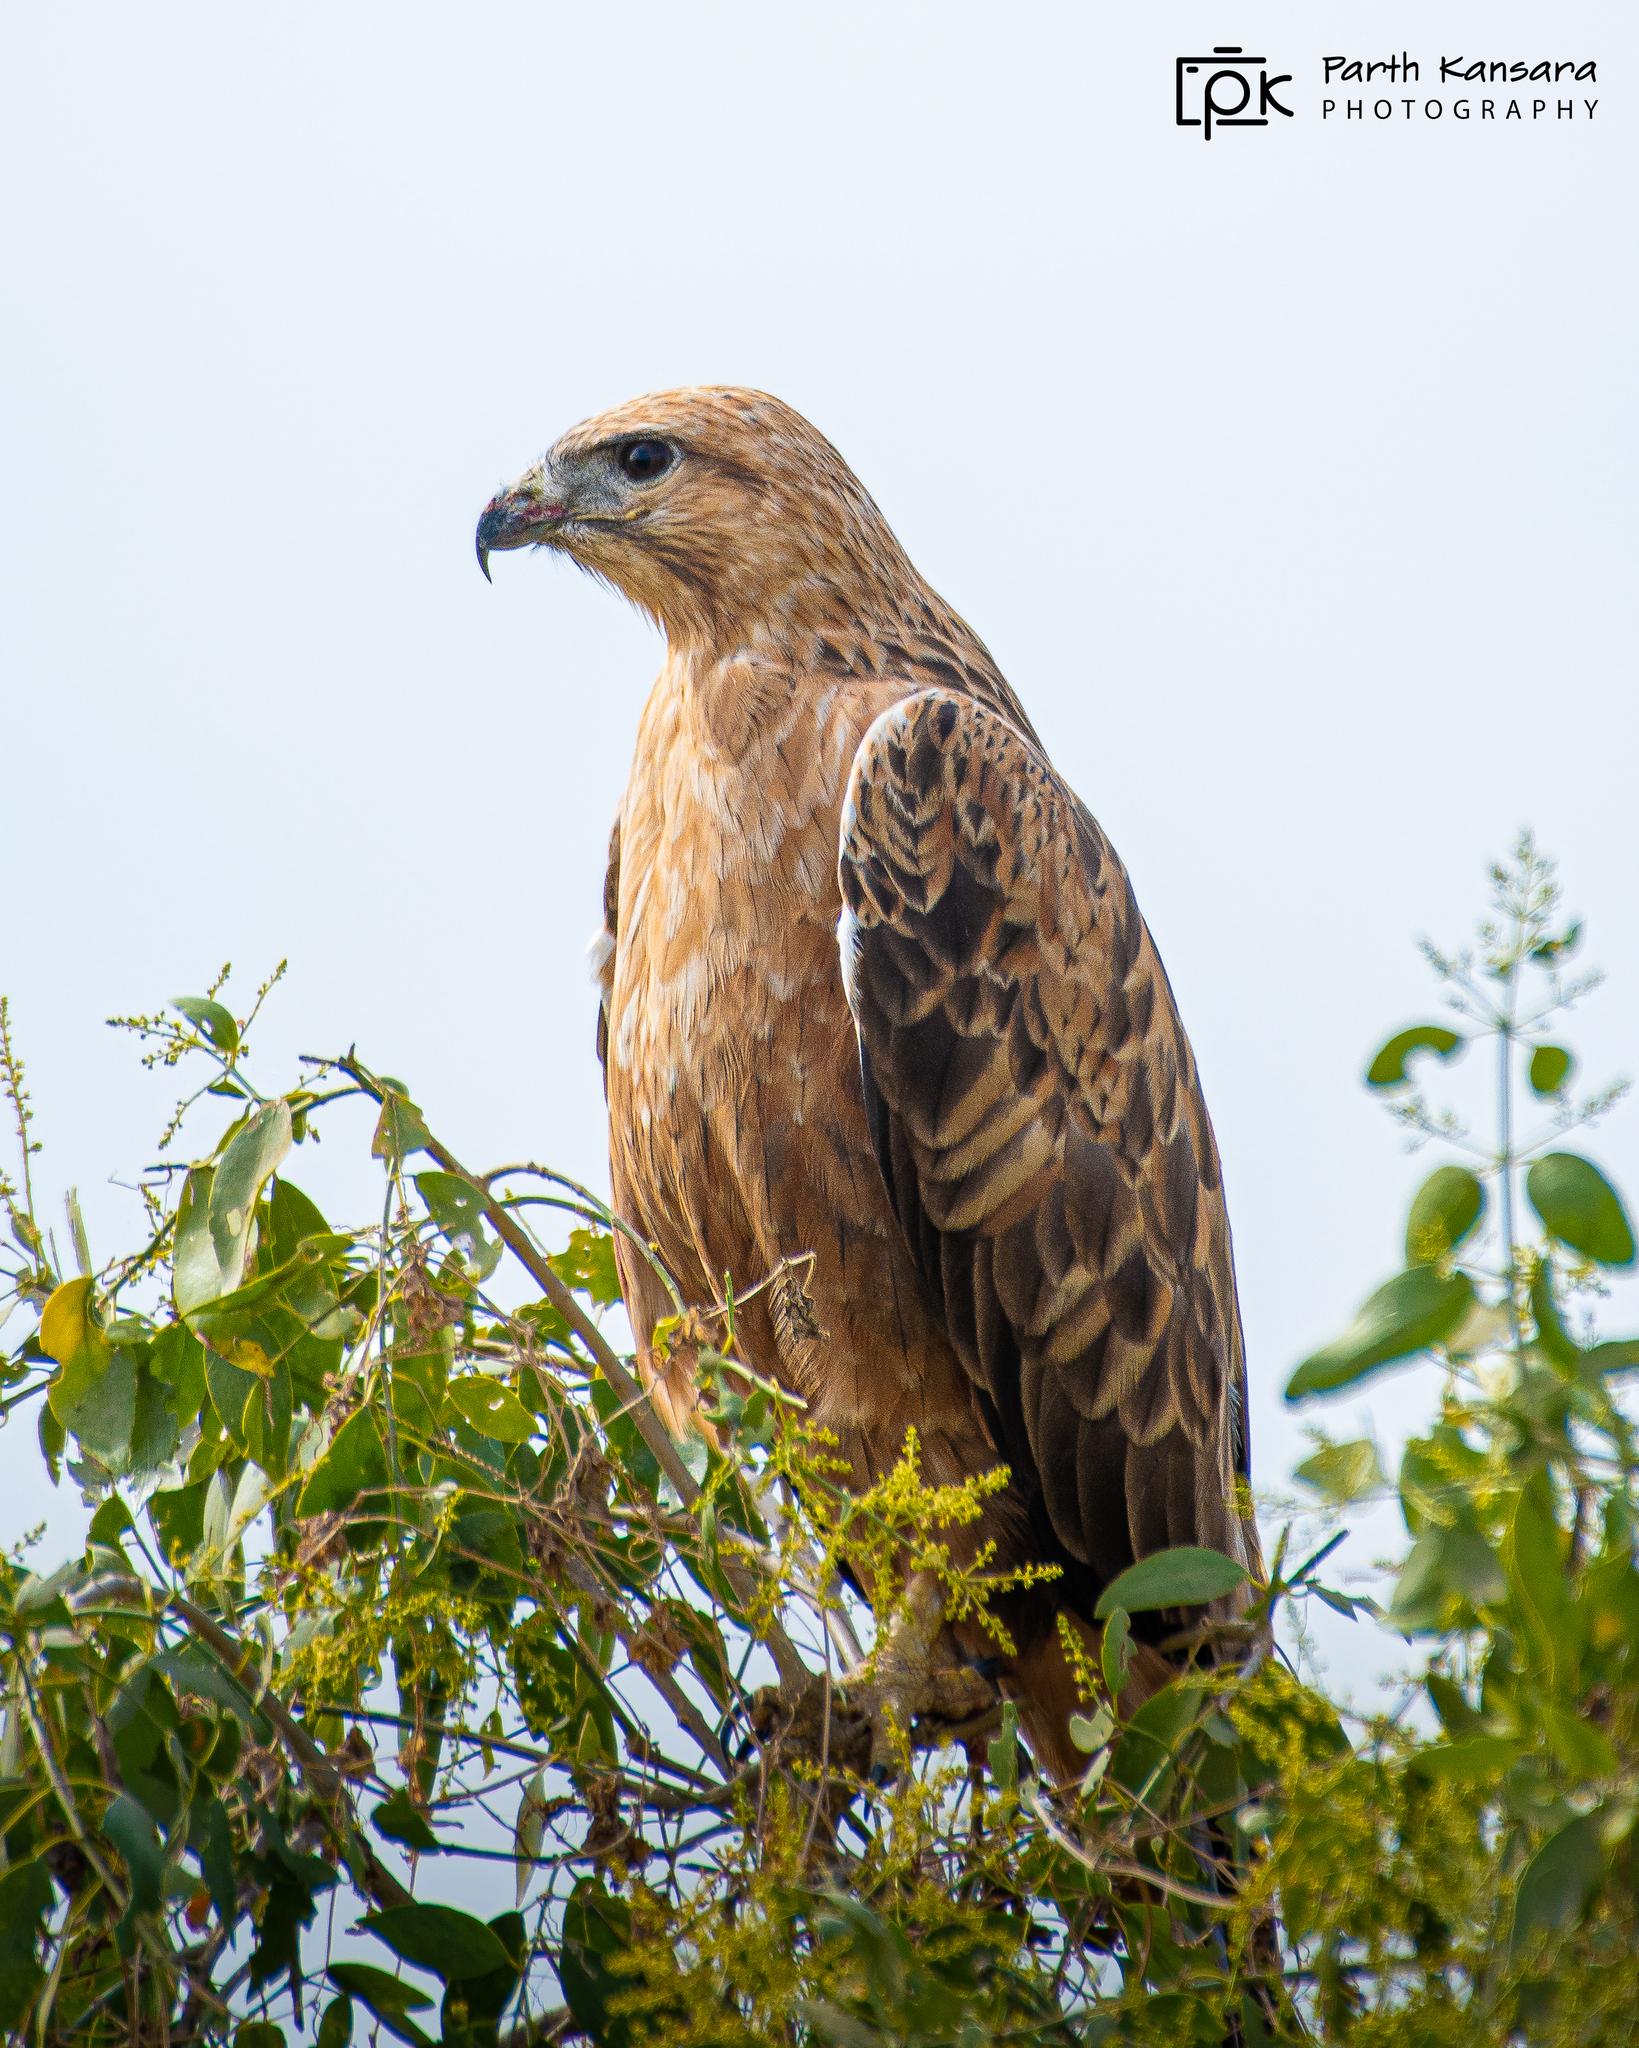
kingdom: Animalia
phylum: Chordata
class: Aves
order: Accipitriformes
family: Accipitridae
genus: Buteo
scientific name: Buteo rufinus
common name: Long-legged buzzard
